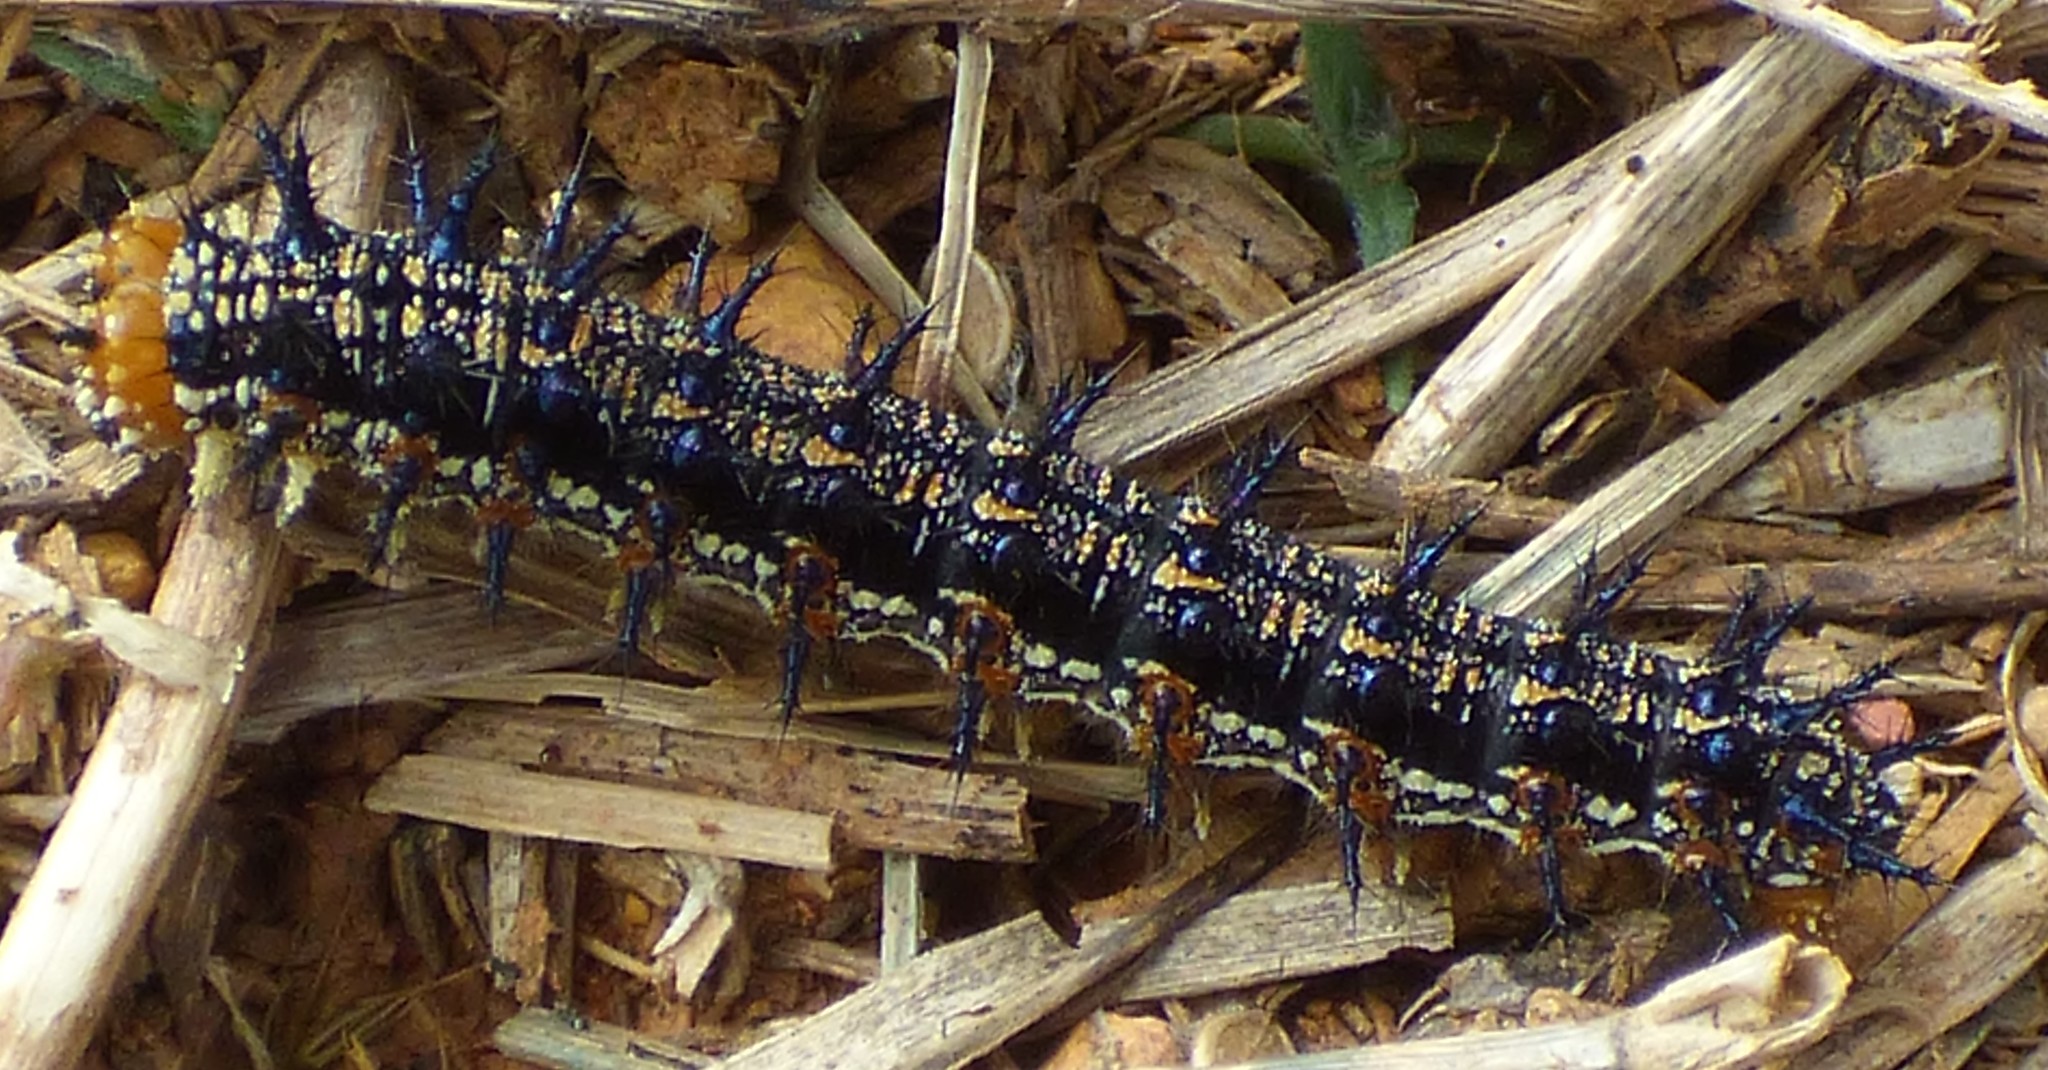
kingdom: Animalia
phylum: Arthropoda
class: Insecta
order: Lepidoptera
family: Nymphalidae
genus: Junonia
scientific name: Junonia coenia
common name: Common buckeye
